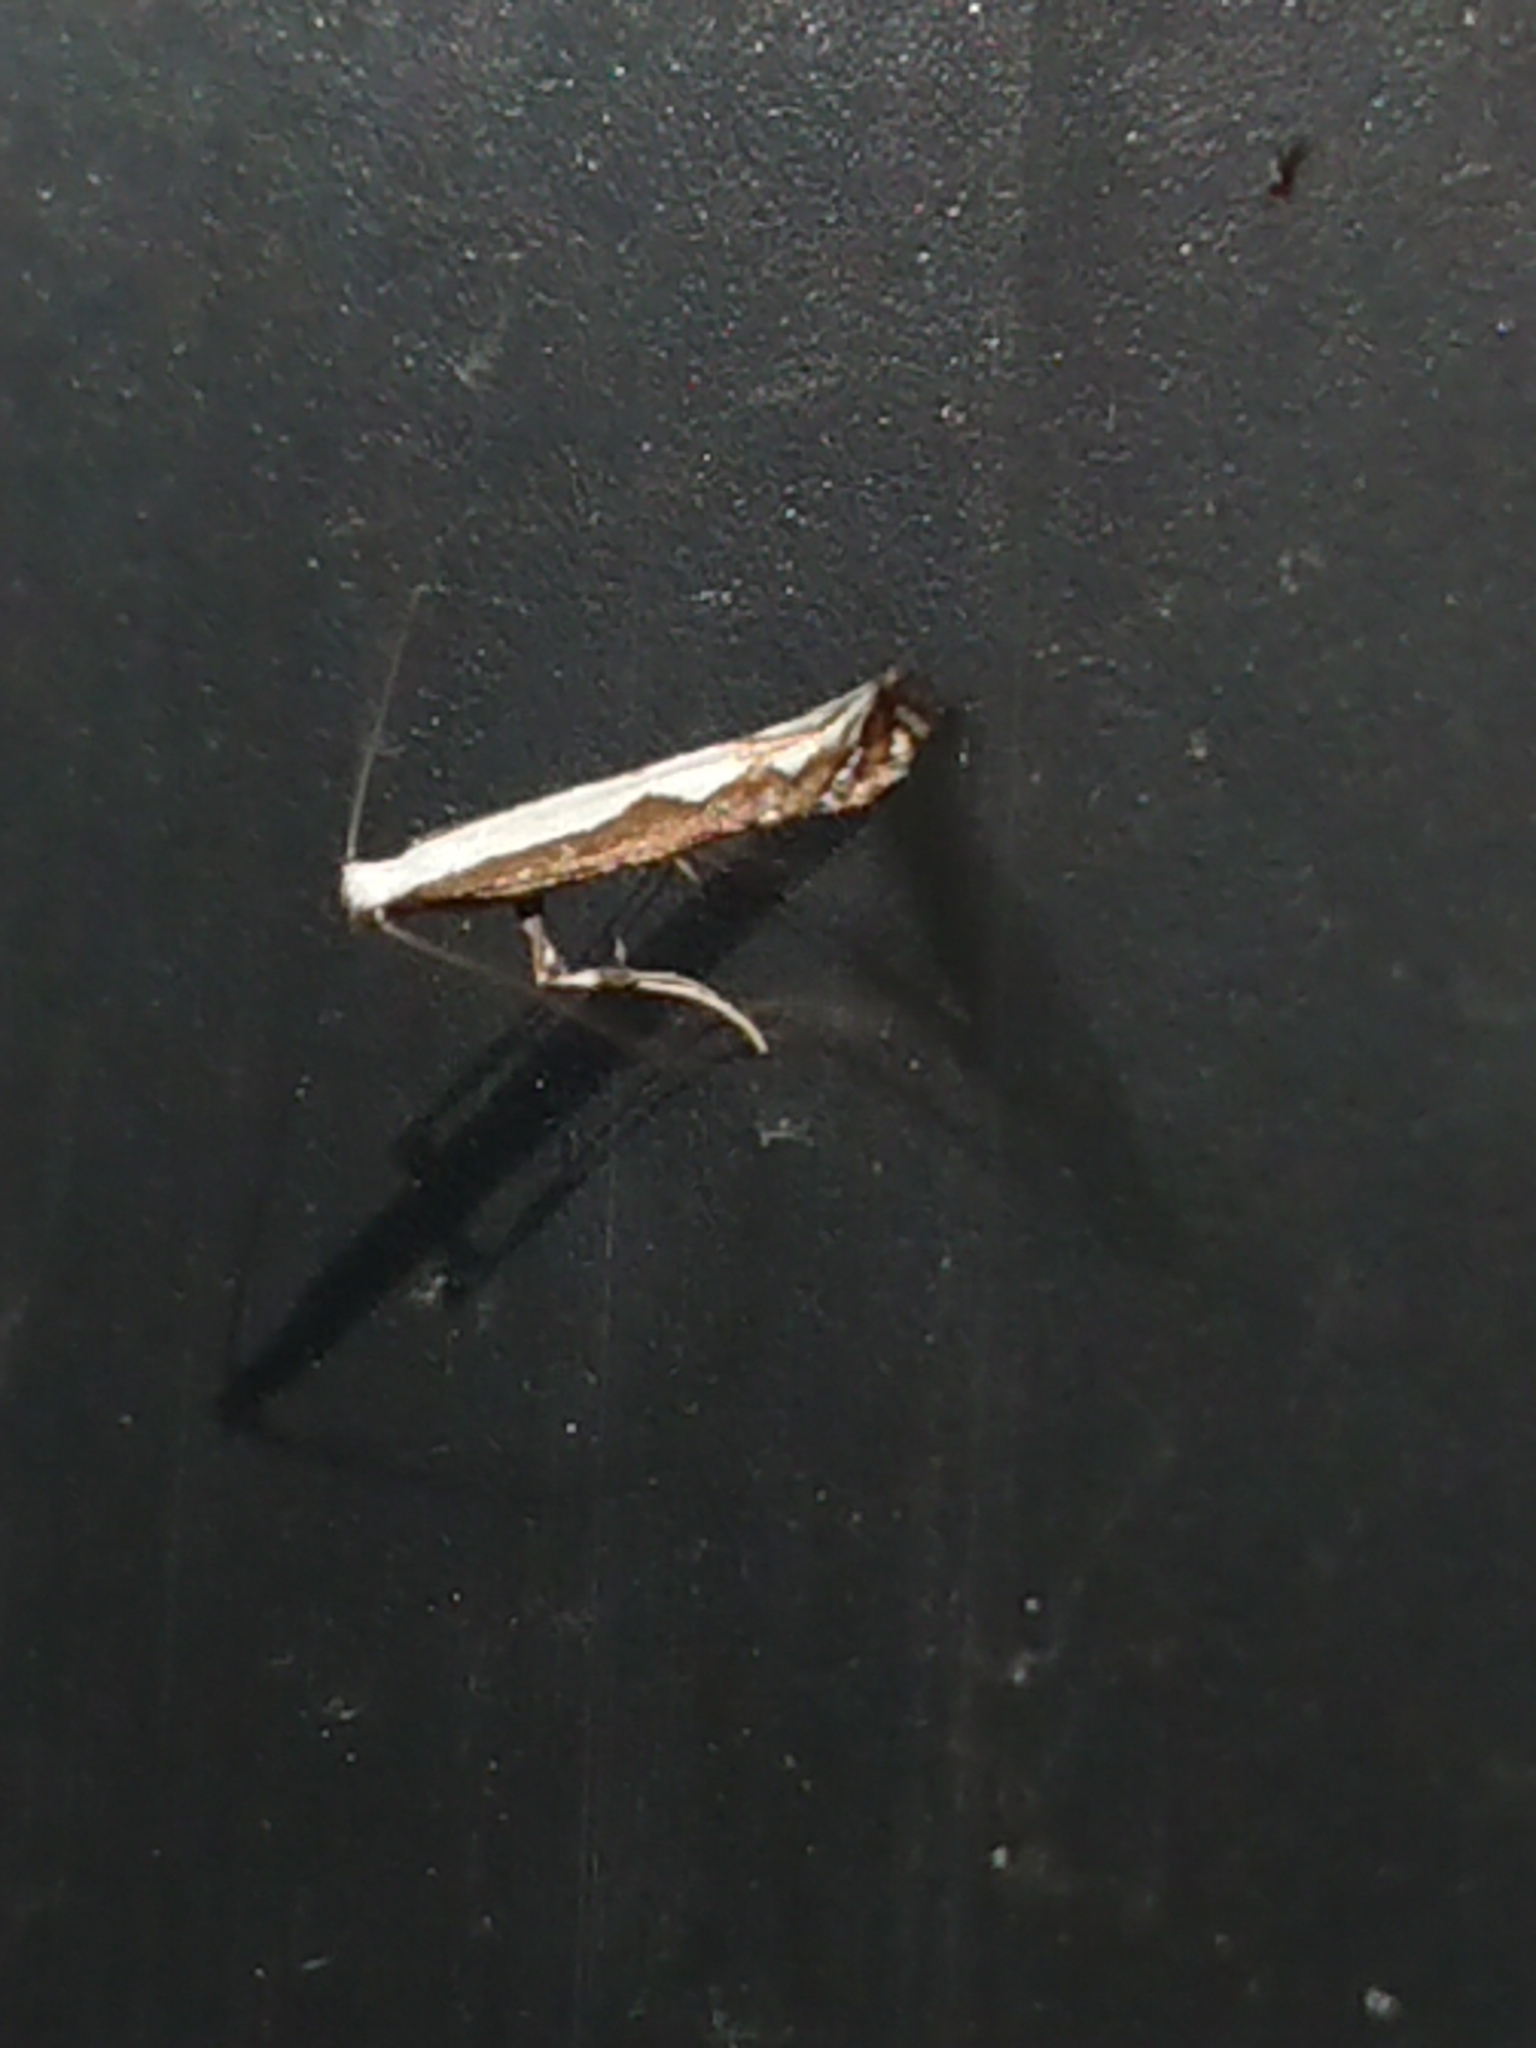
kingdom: Animalia
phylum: Arthropoda
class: Insecta
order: Lepidoptera
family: Gracillariidae
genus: Dialectica
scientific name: Dialectica scalariella
